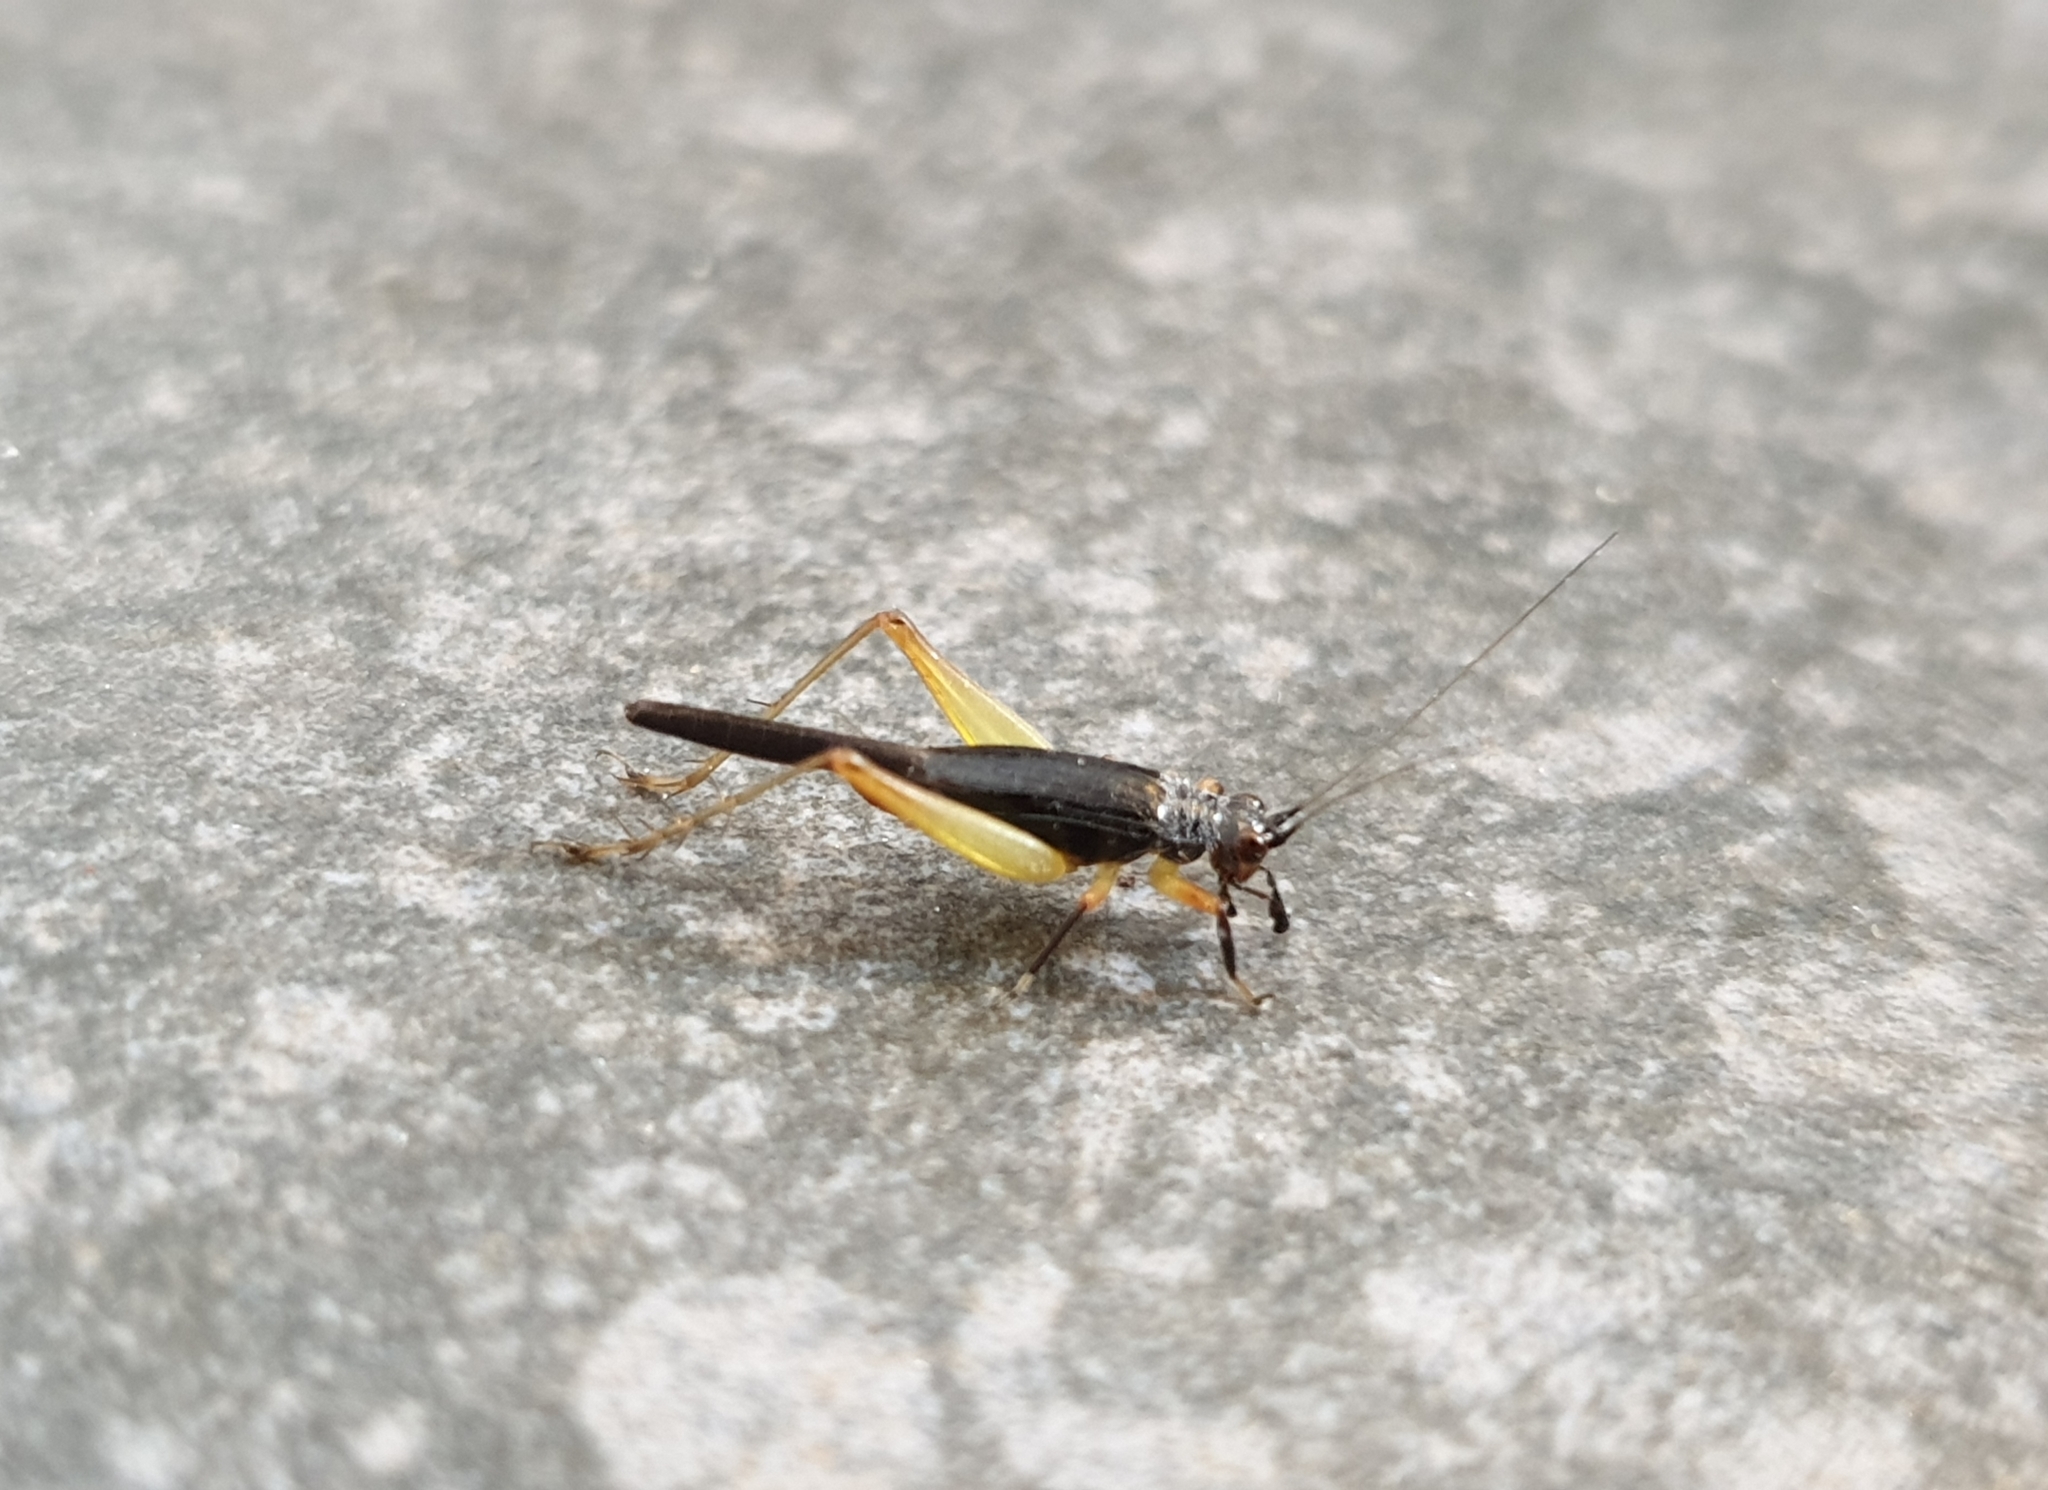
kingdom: Animalia
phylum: Arthropoda
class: Insecta
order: Orthoptera
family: Trigonidiidae
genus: Trigonidium
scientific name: Trigonidium humbertianum
